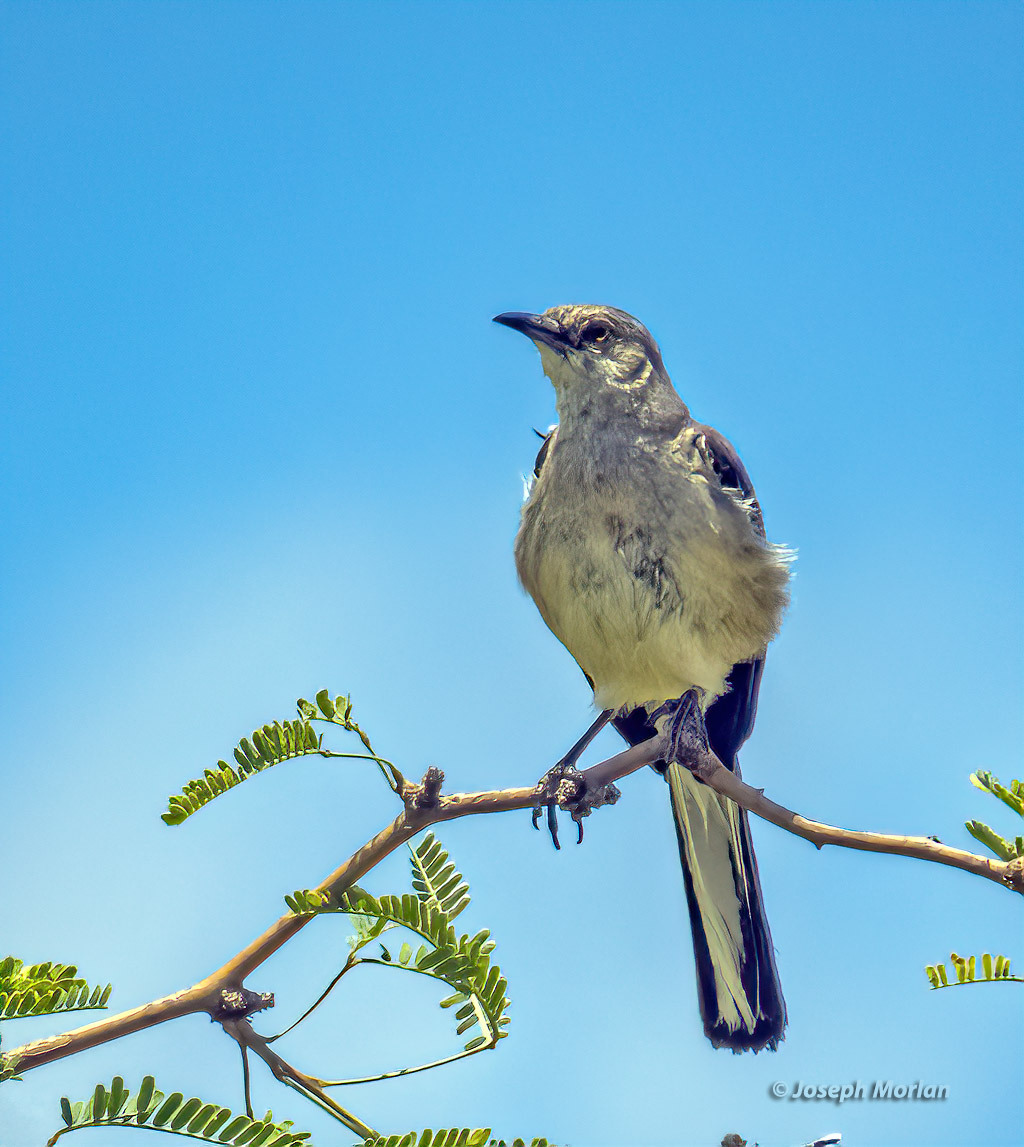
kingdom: Animalia
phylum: Chordata
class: Aves
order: Passeriformes
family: Mimidae
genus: Mimus
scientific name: Mimus polyglottos
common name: Northern mockingbird
